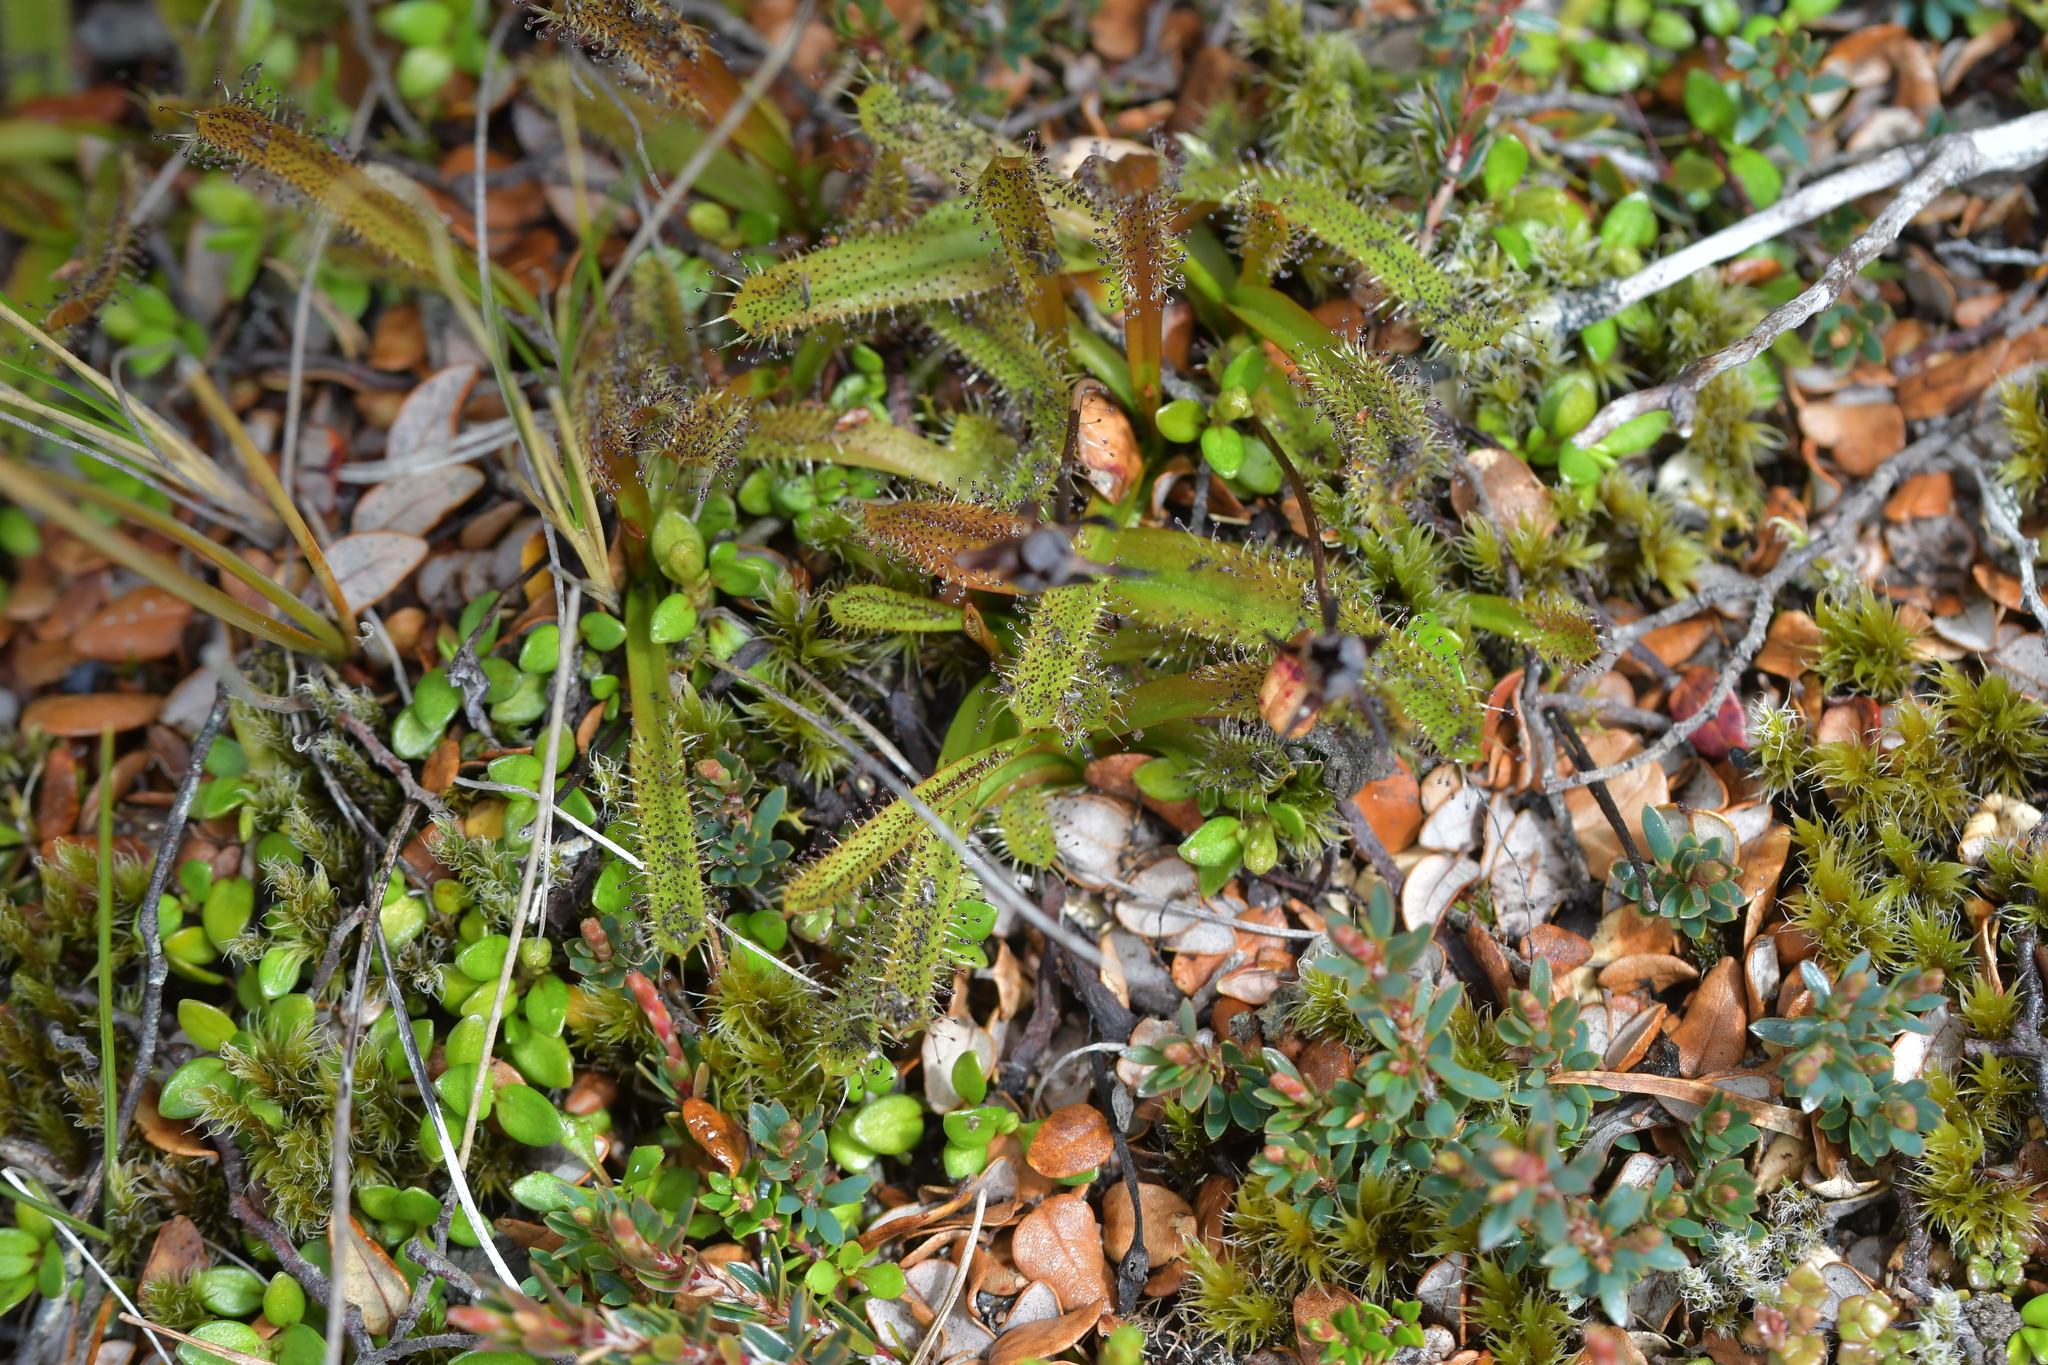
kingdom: Plantae
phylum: Tracheophyta
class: Magnoliopsida
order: Caryophyllales
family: Droseraceae
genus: Drosera
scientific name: Drosera arcturi
